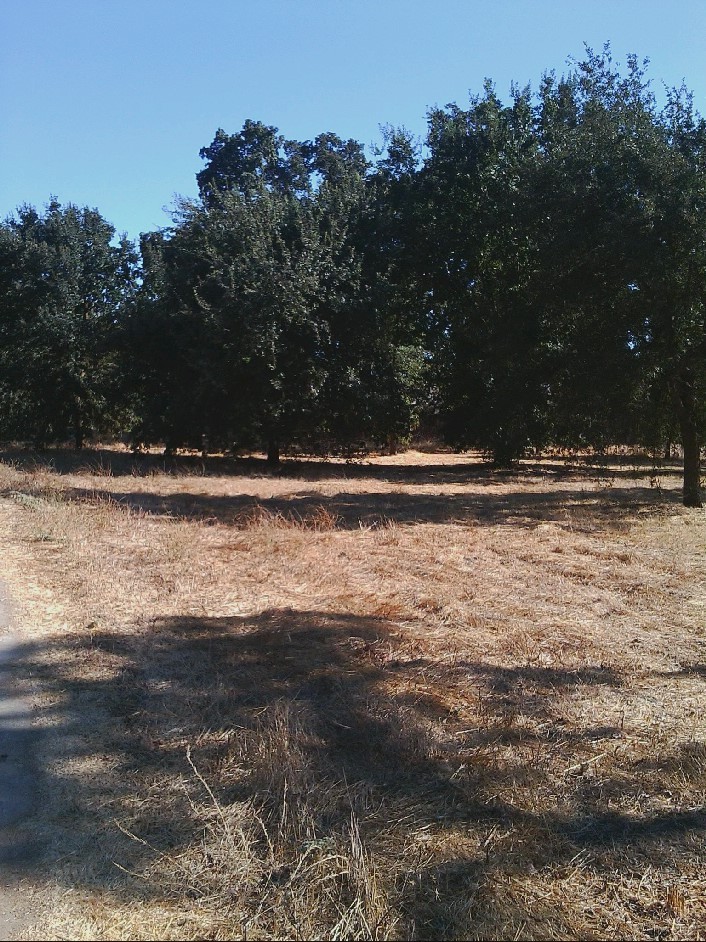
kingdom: Plantae
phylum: Tracheophyta
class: Magnoliopsida
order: Fagales
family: Fagaceae
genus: Quercus
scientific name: Quercus lobata
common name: Valley oak
